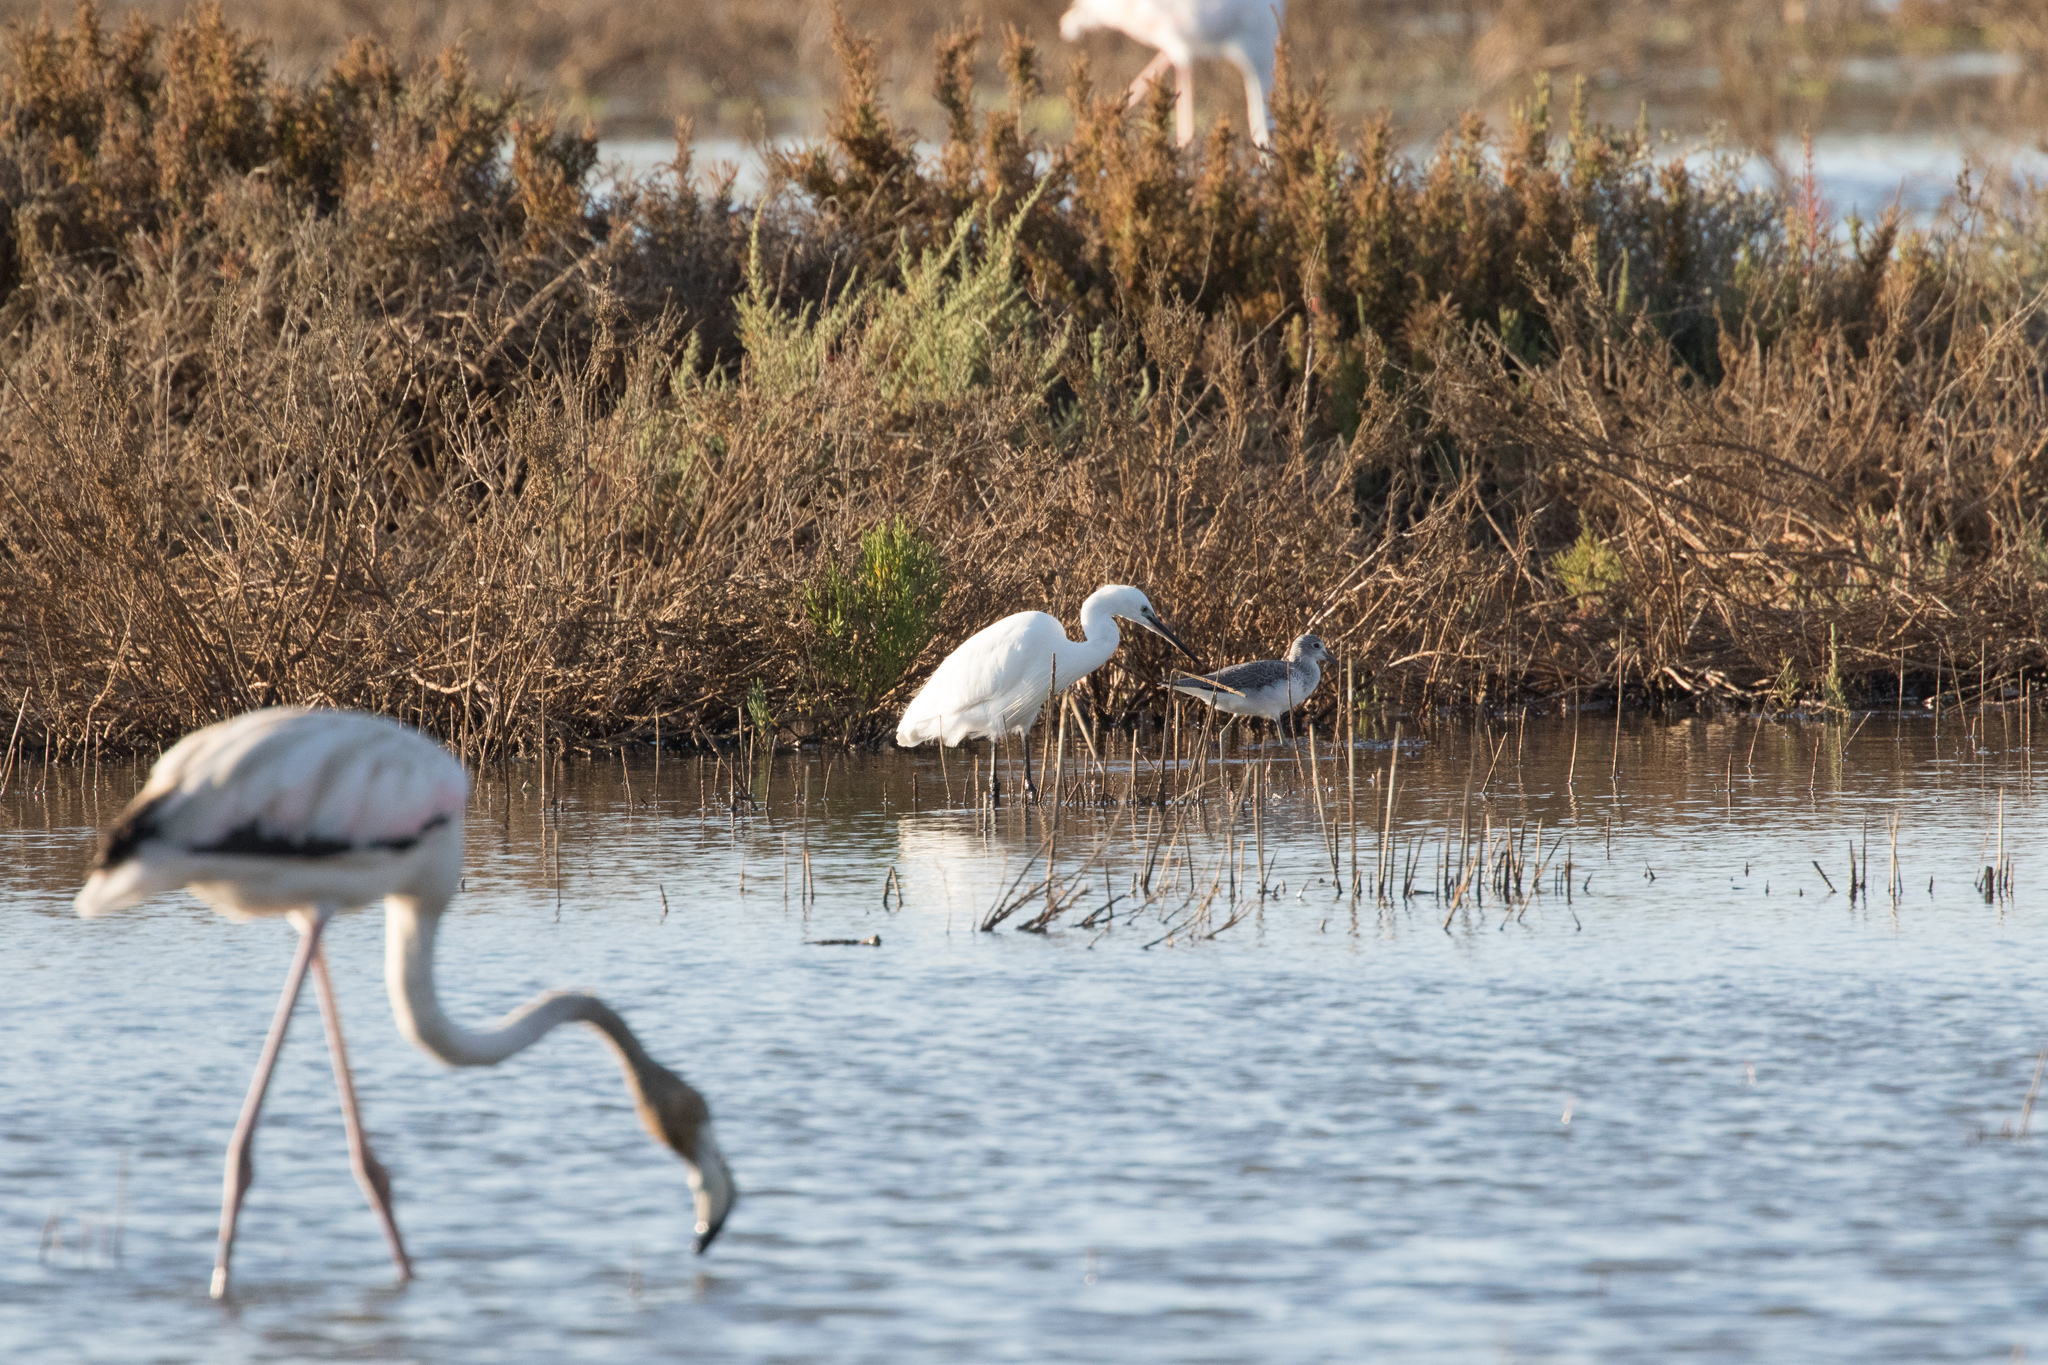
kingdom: Animalia
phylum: Chordata
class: Aves
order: Pelecaniformes
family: Ardeidae
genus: Egretta
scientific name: Egretta garzetta
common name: Little egret
